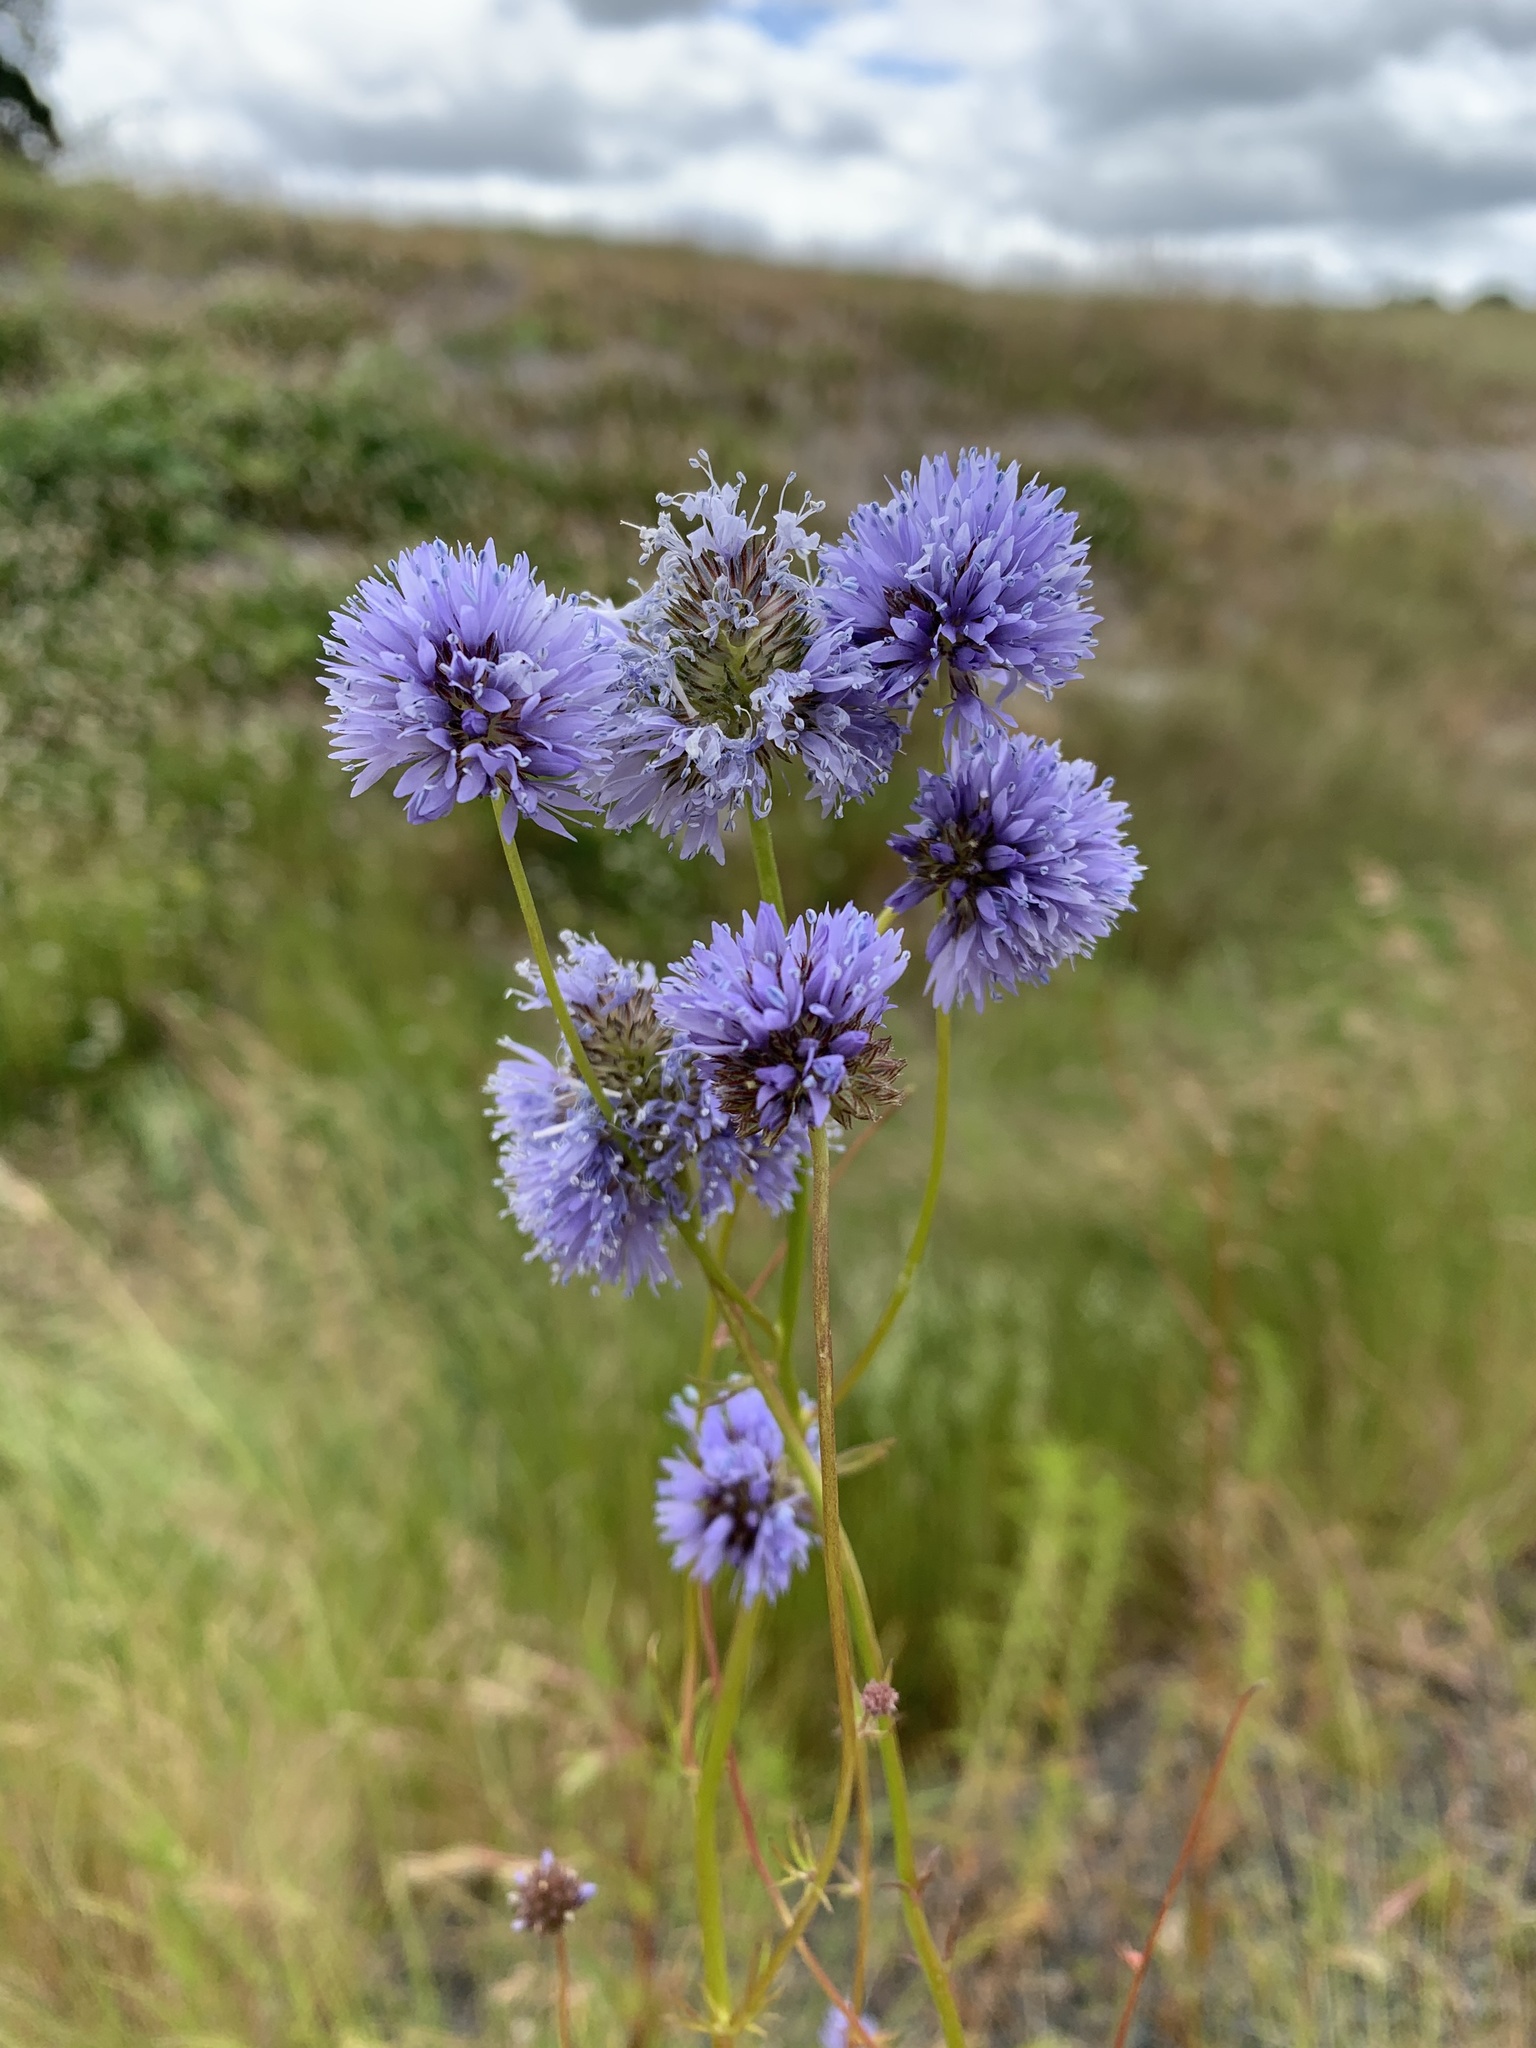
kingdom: Plantae
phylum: Tracheophyta
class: Magnoliopsida
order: Ericales
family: Polemoniaceae
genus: Gilia
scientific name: Gilia capitata
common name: Bluehead gilia
